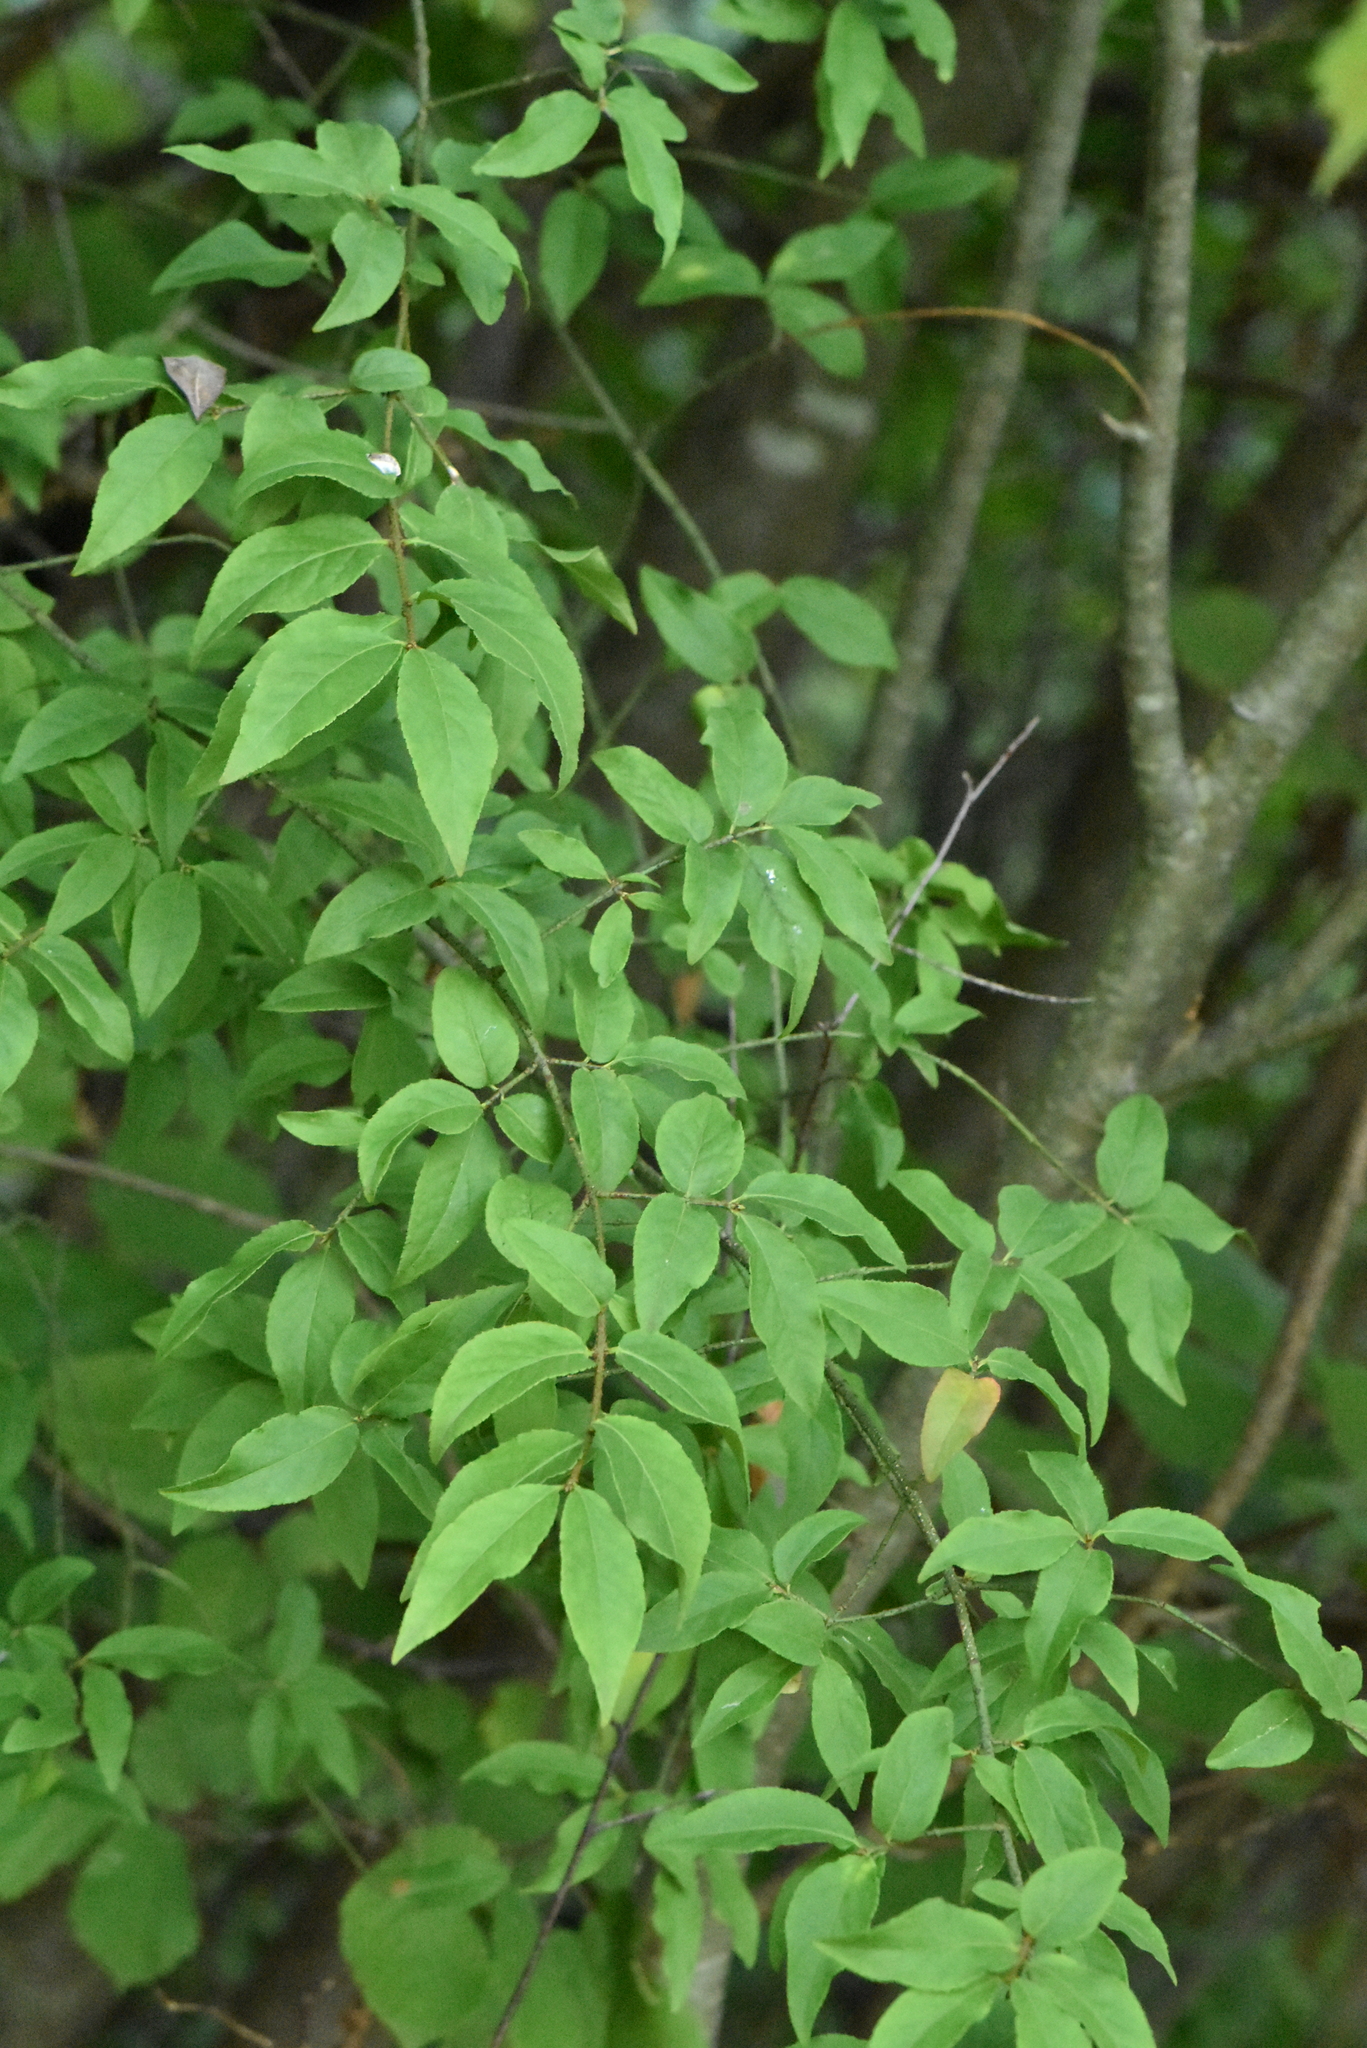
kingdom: Plantae
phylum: Tracheophyta
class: Magnoliopsida
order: Celastrales
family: Celastraceae
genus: Euonymus
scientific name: Euonymus verrucosus
